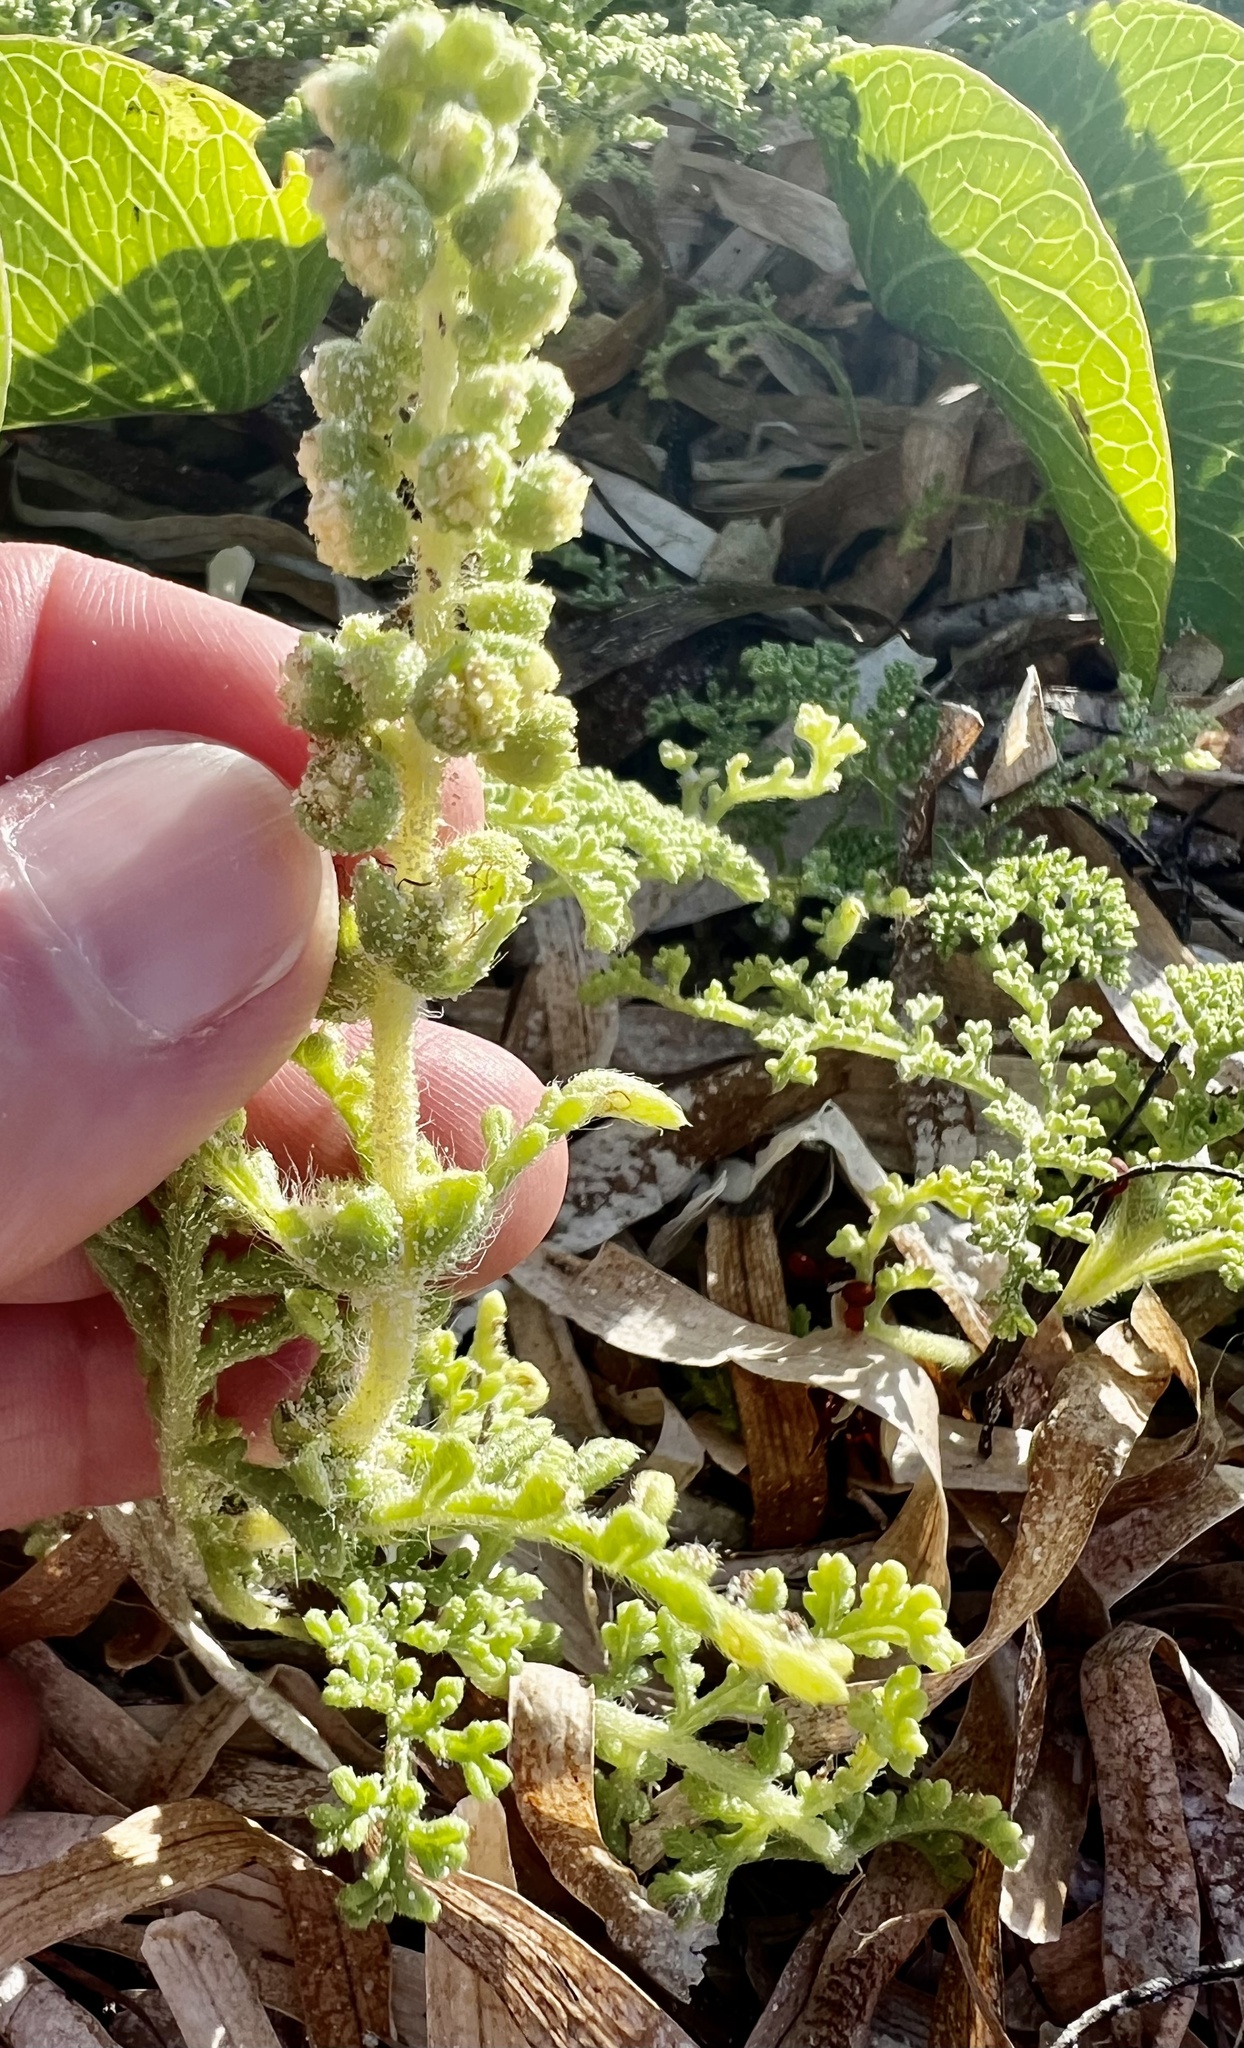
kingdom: Plantae
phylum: Tracheophyta
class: Magnoliopsida
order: Asterales
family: Asteraceae
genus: Ambrosia
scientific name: Ambrosia hispida
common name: Coastal ragweed
